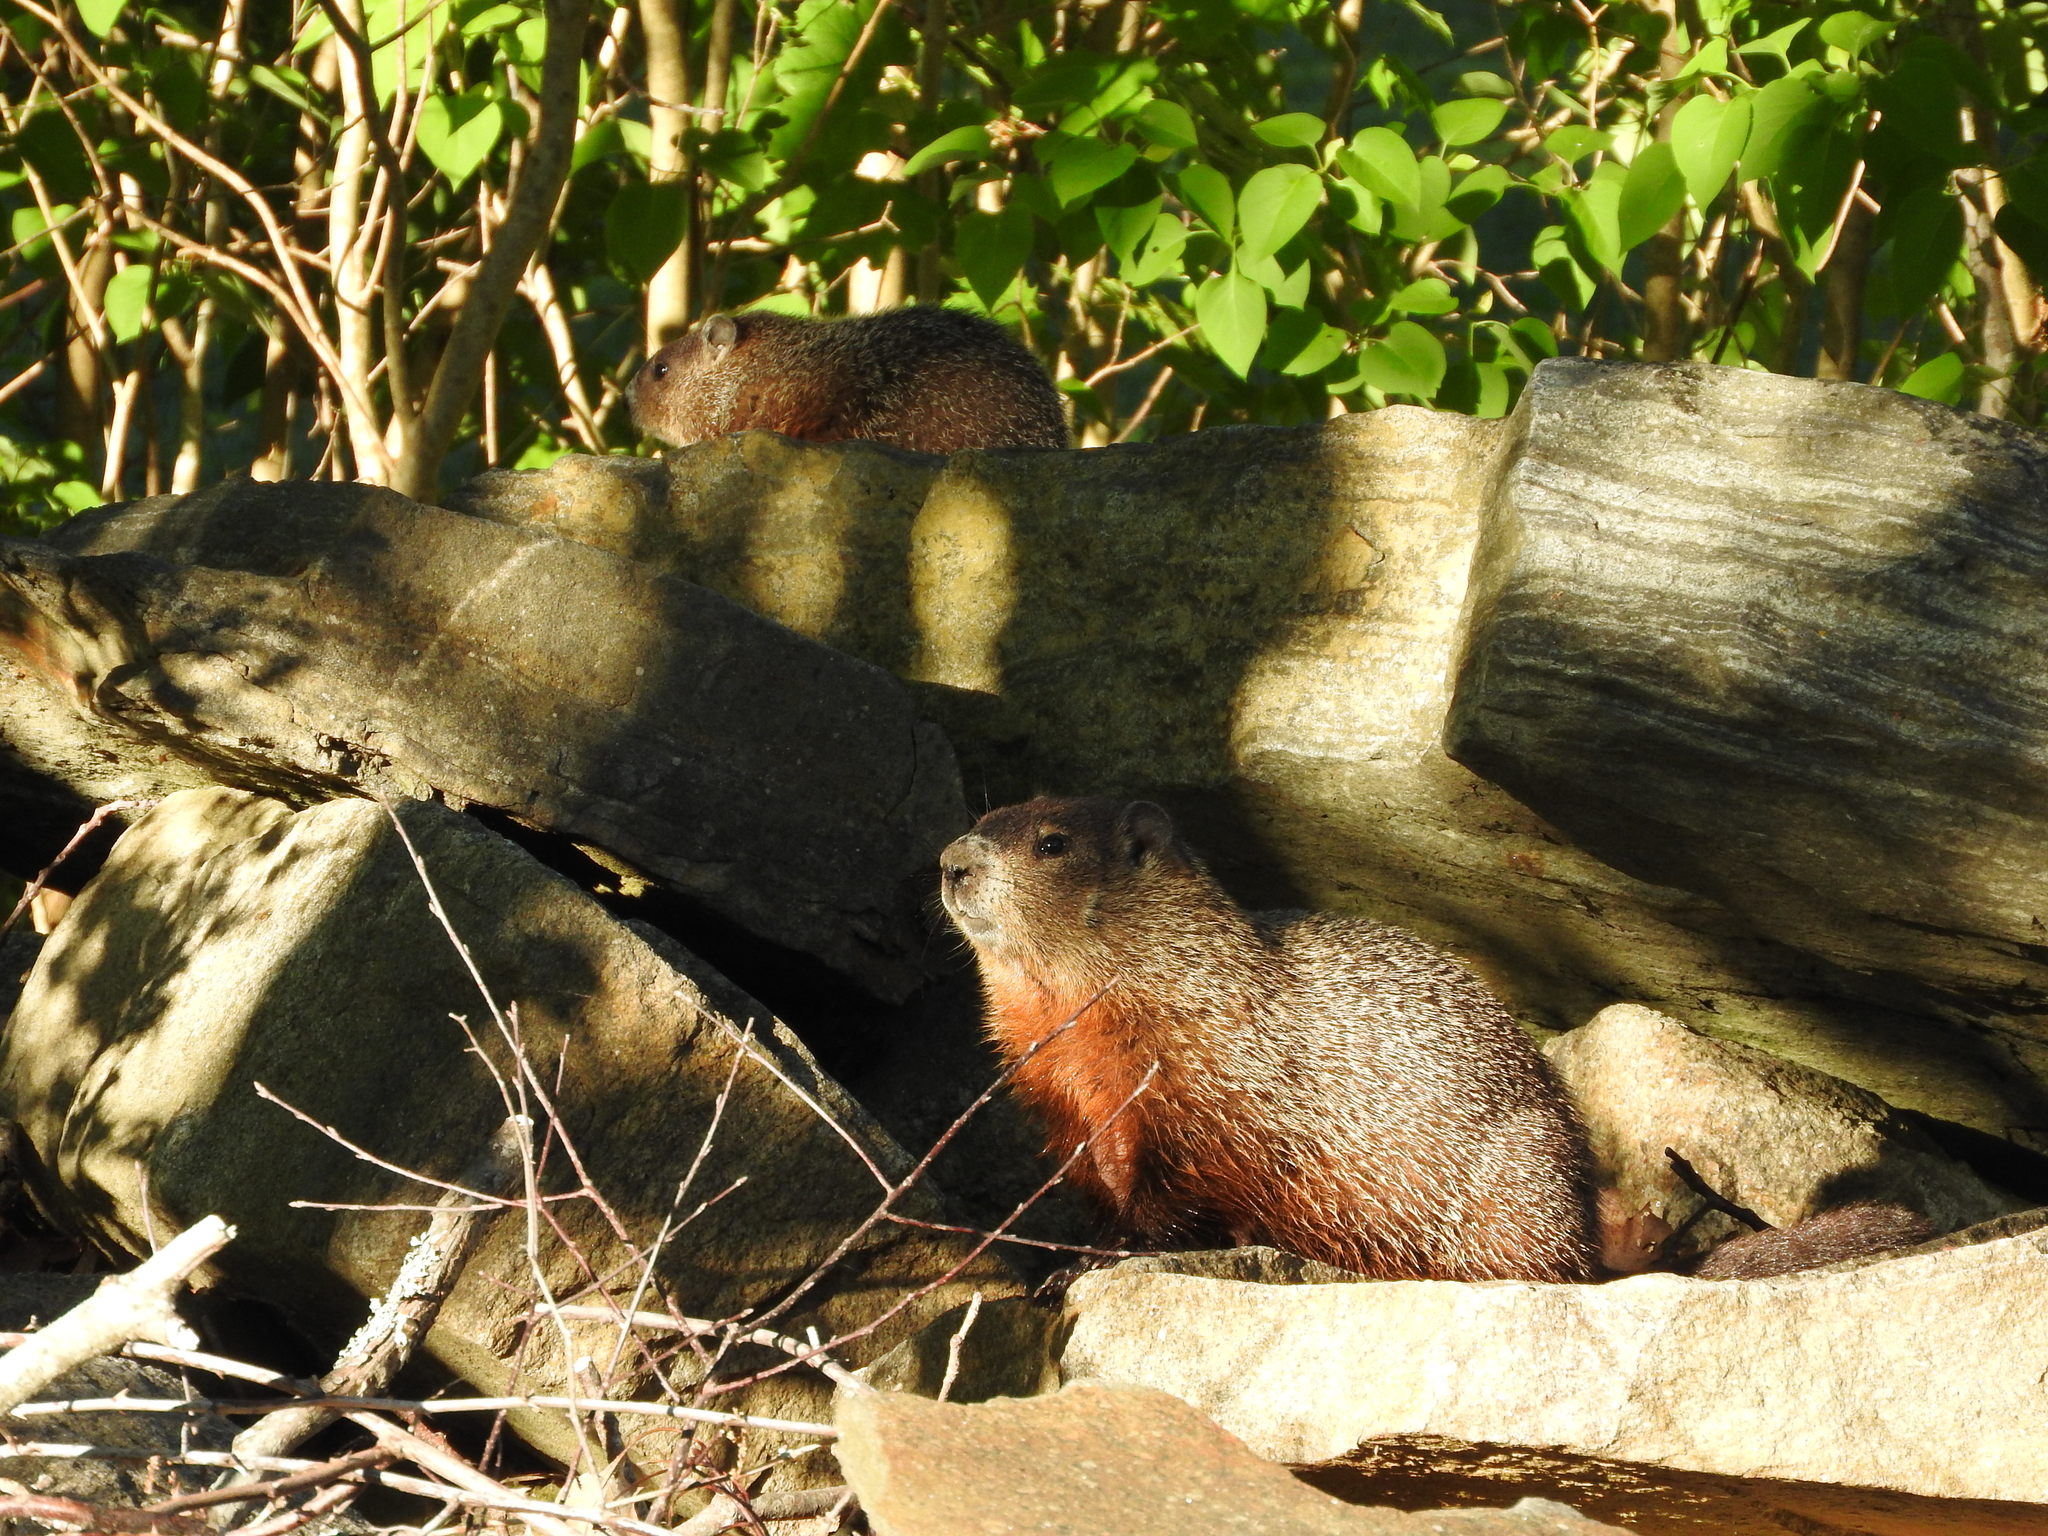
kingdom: Animalia
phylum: Chordata
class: Mammalia
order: Rodentia
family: Sciuridae
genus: Marmota
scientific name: Marmota monax
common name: Groundhog
